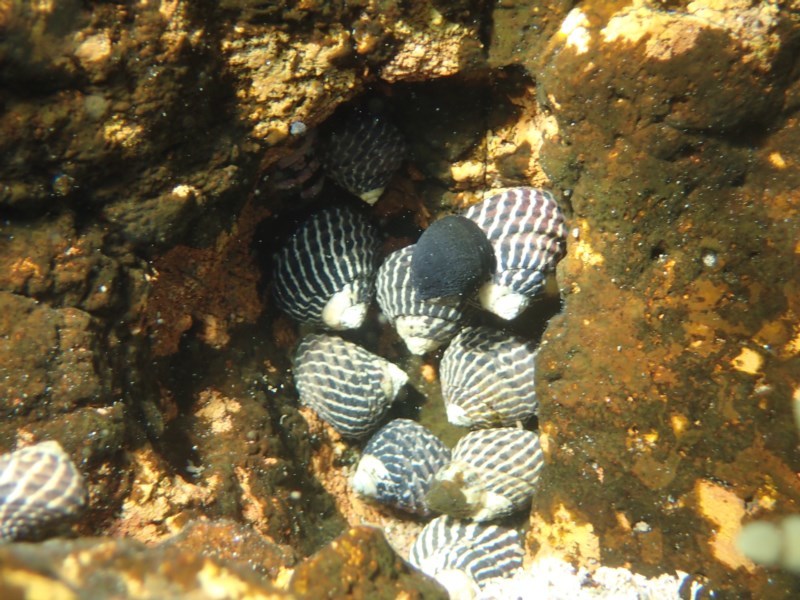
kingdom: Animalia
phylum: Mollusca
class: Gastropoda
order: Trochida
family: Trochidae
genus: Austrocochlea
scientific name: Austrocochlea porcata
